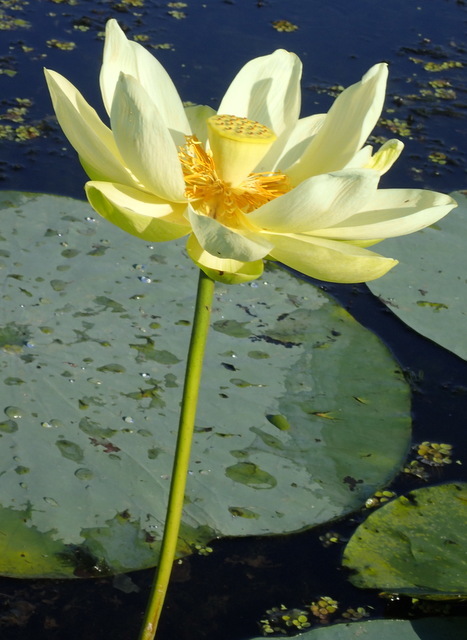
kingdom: Plantae
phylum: Tracheophyta
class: Magnoliopsida
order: Proteales
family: Nelumbonaceae
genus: Nelumbo
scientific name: Nelumbo lutea
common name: American lotus
